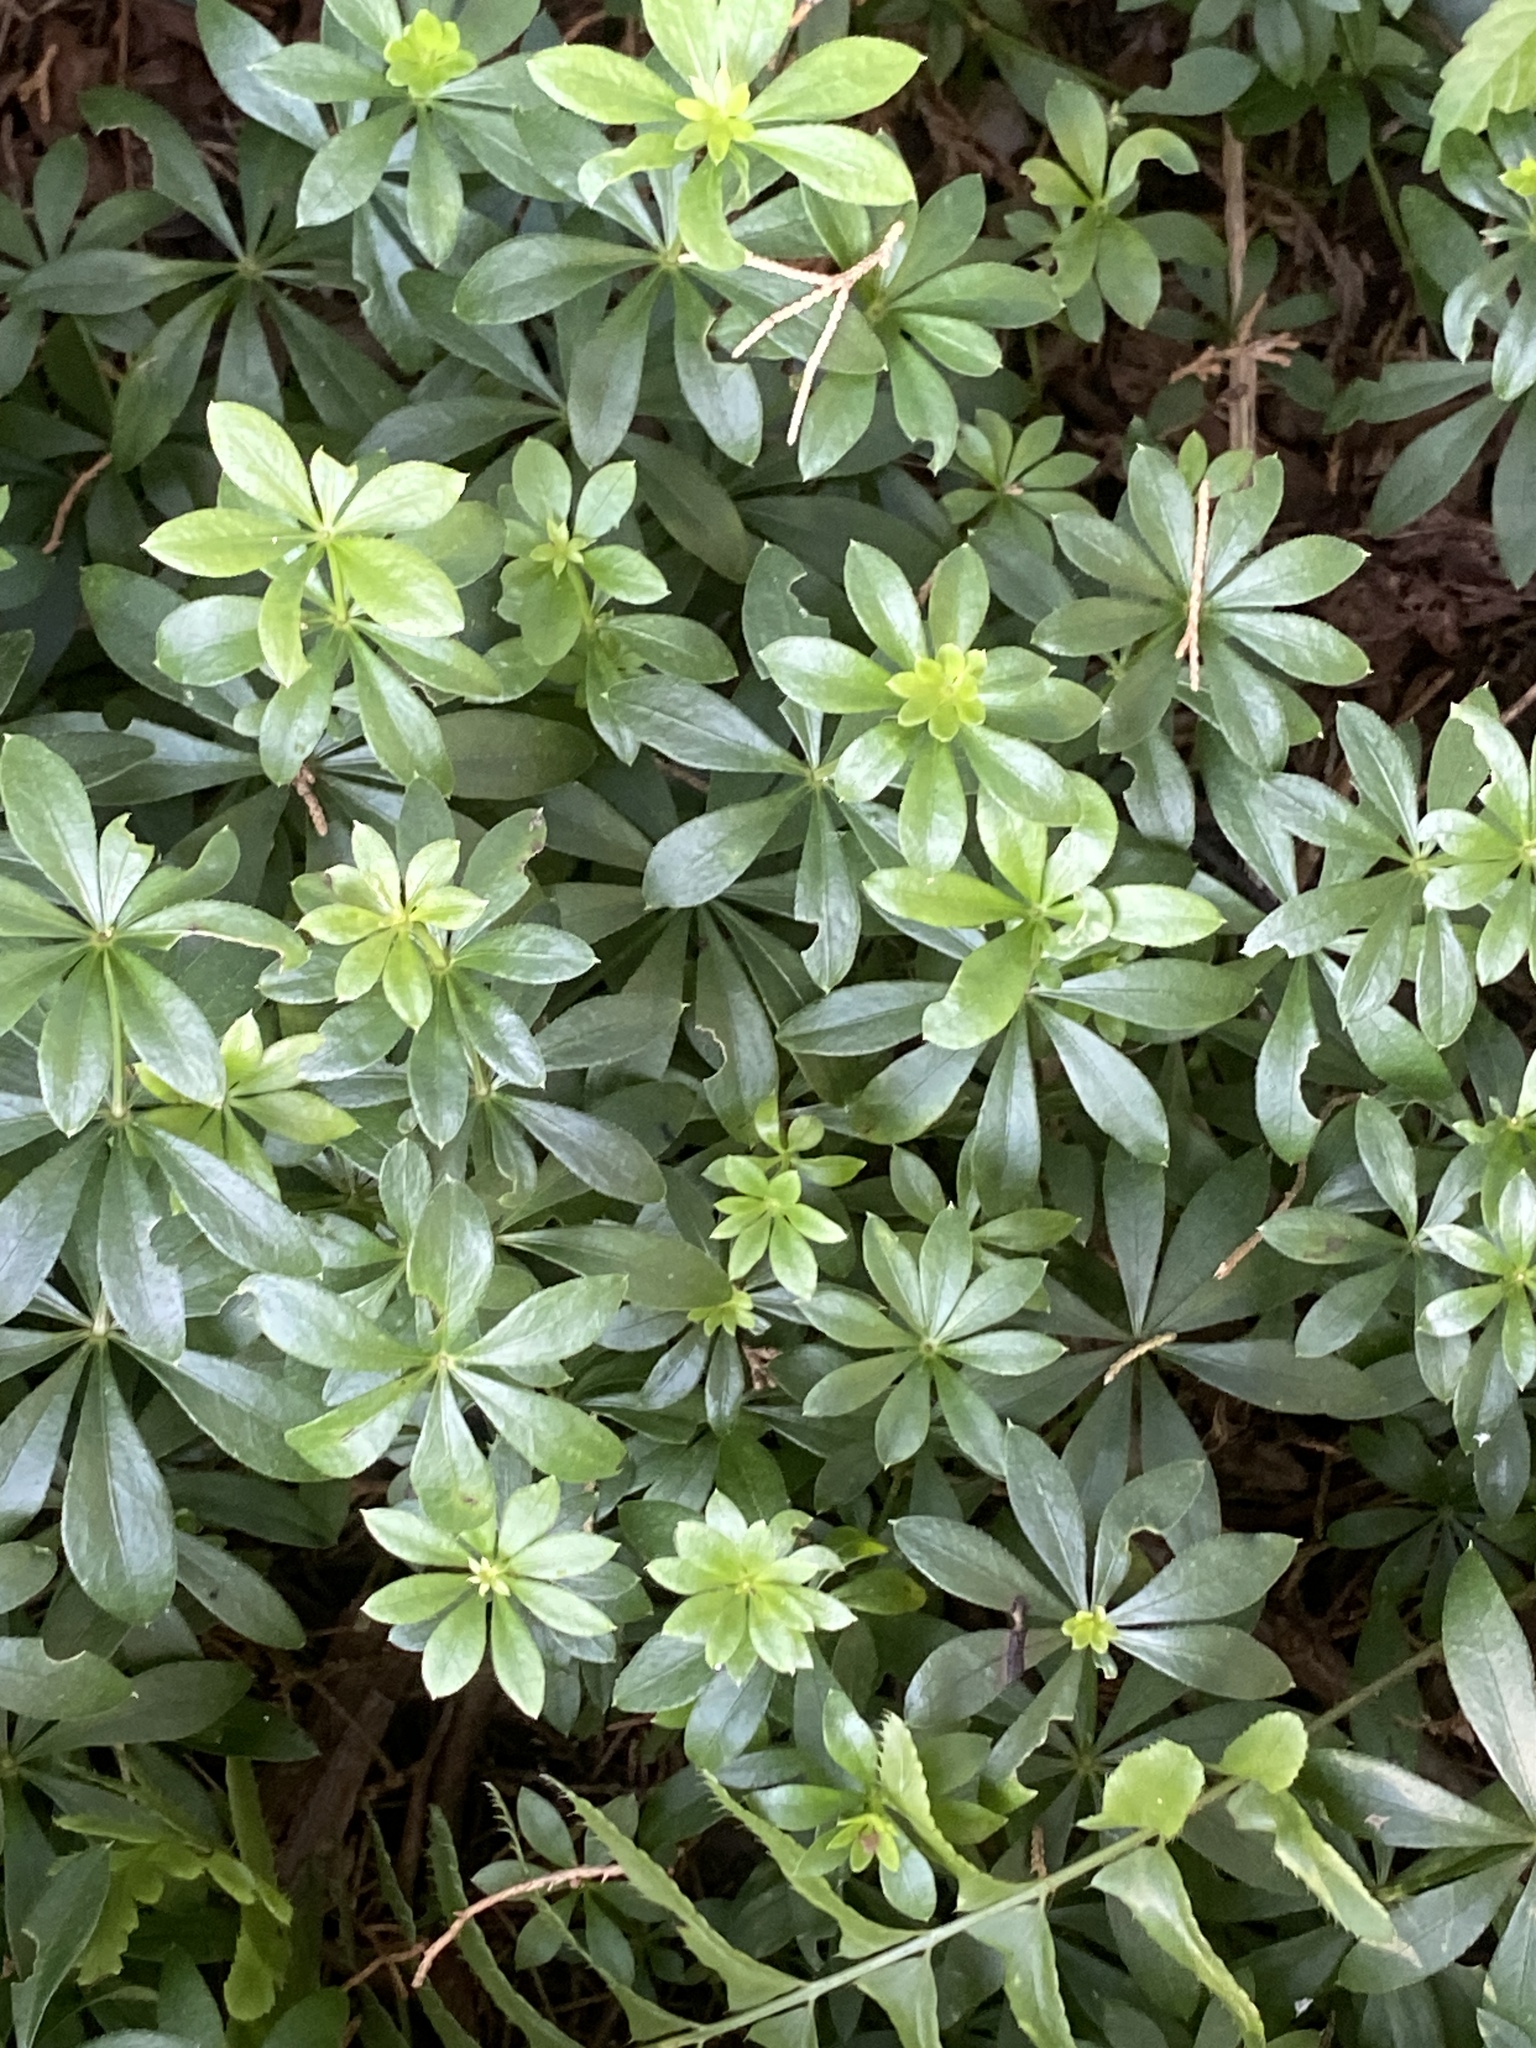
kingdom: Plantae
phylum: Tracheophyta
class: Magnoliopsida
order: Gentianales
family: Rubiaceae
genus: Galium
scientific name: Galium odoratum
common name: Sweet woodruff
